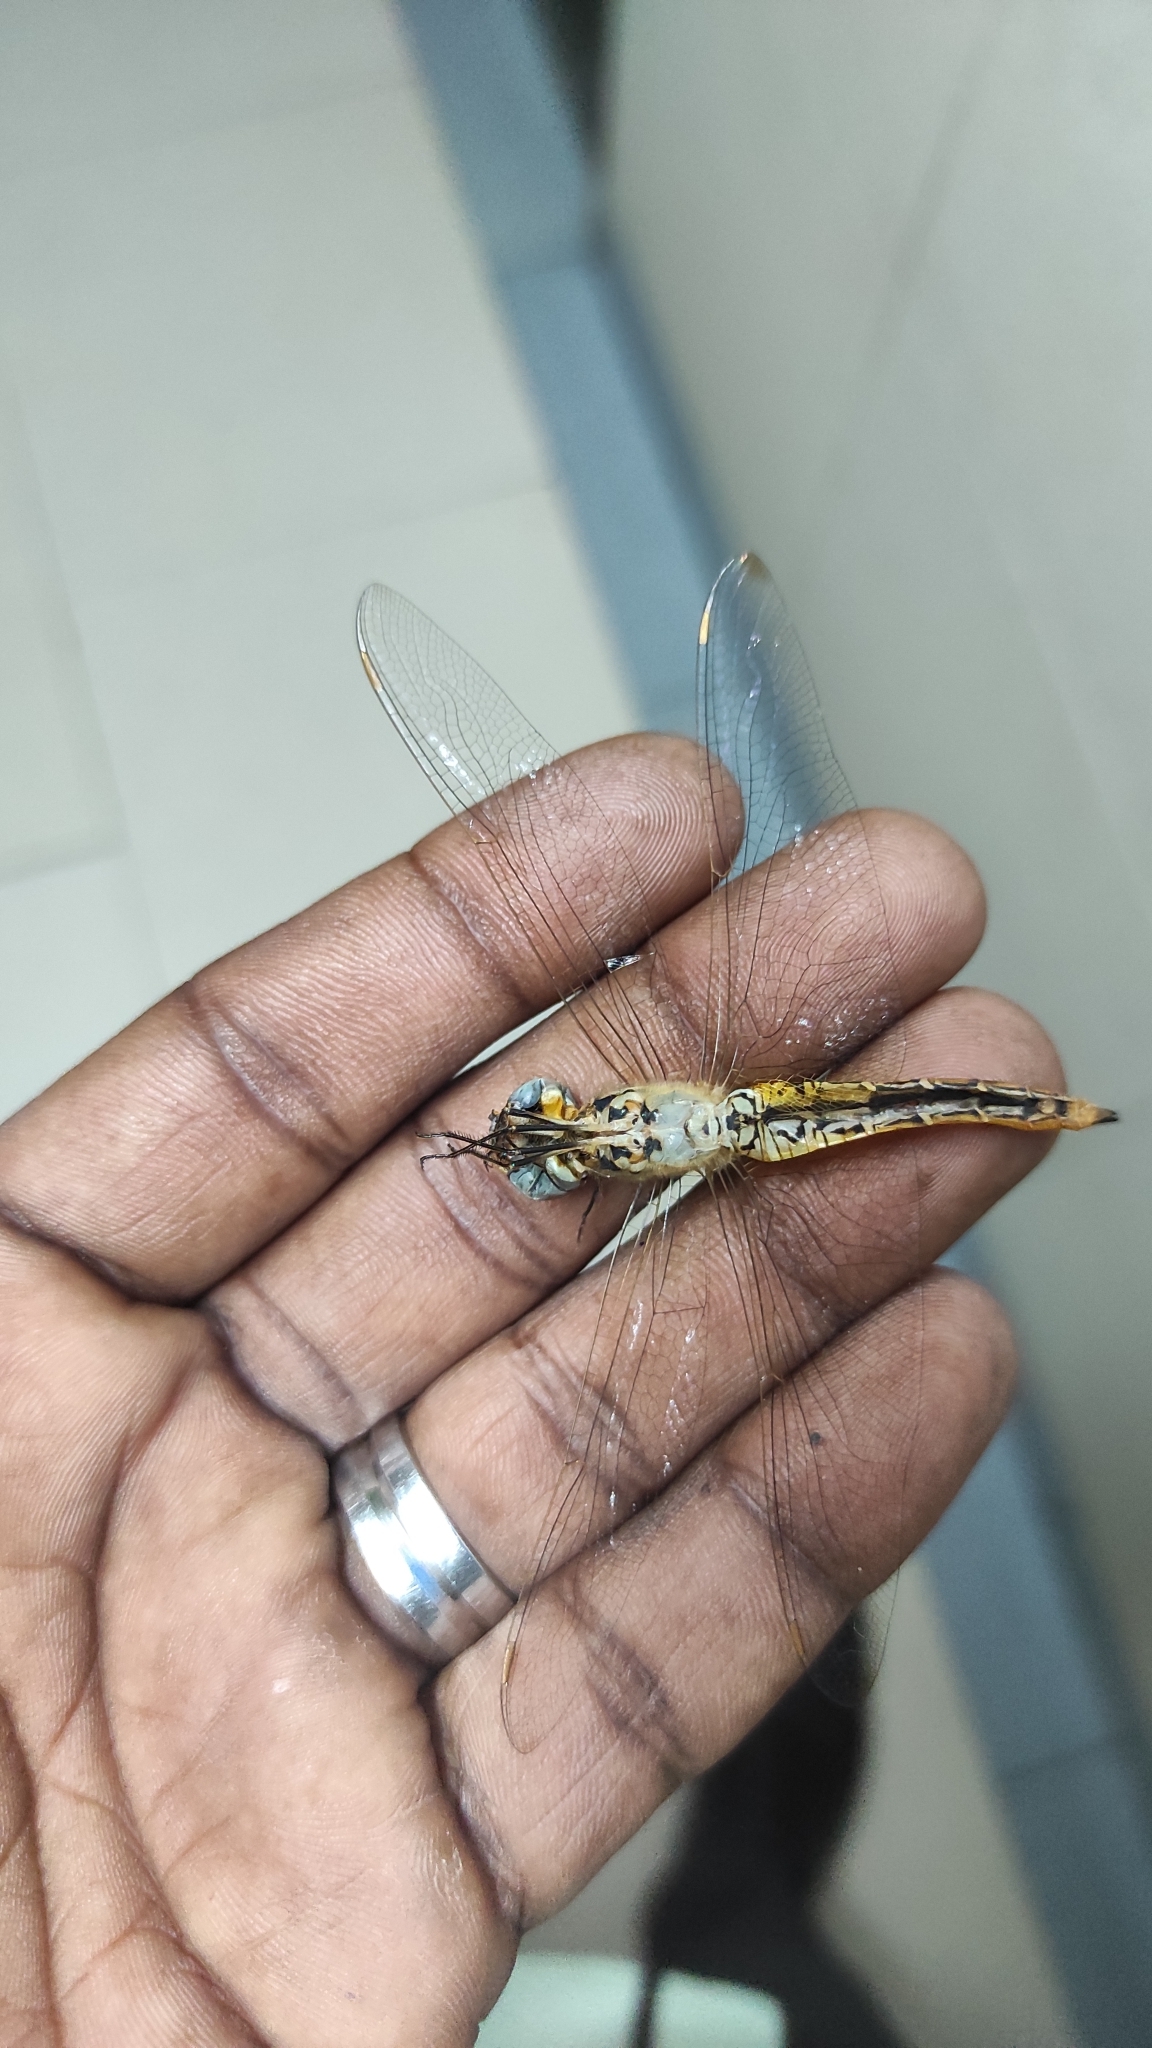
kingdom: Animalia
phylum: Arthropoda
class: Insecta
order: Odonata
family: Libellulidae
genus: Pantala
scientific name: Pantala flavescens
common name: Wandering glider
